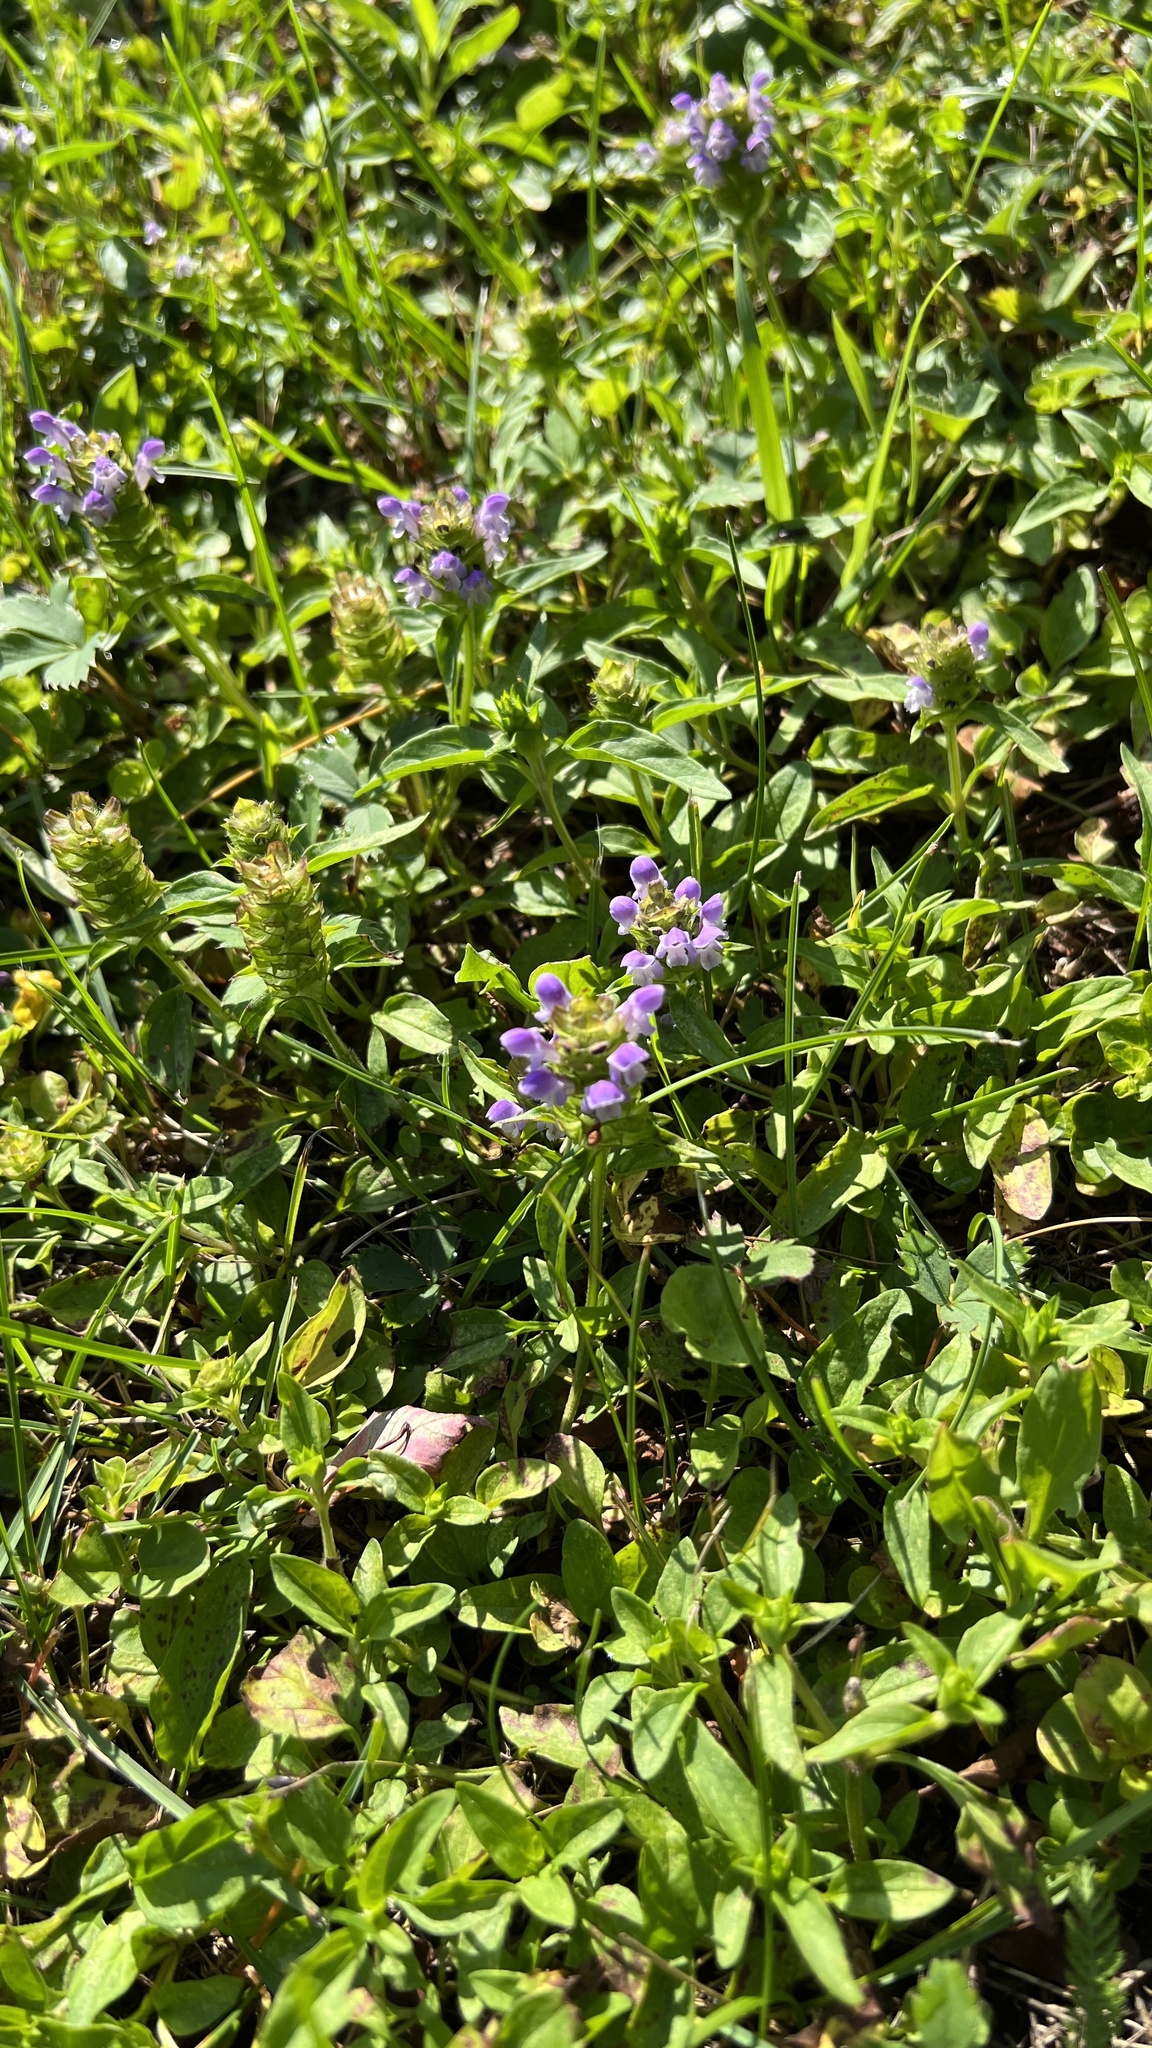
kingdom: Plantae
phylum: Tracheophyta
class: Magnoliopsida
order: Lamiales
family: Lamiaceae
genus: Prunella
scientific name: Prunella vulgaris
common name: Heal-all
